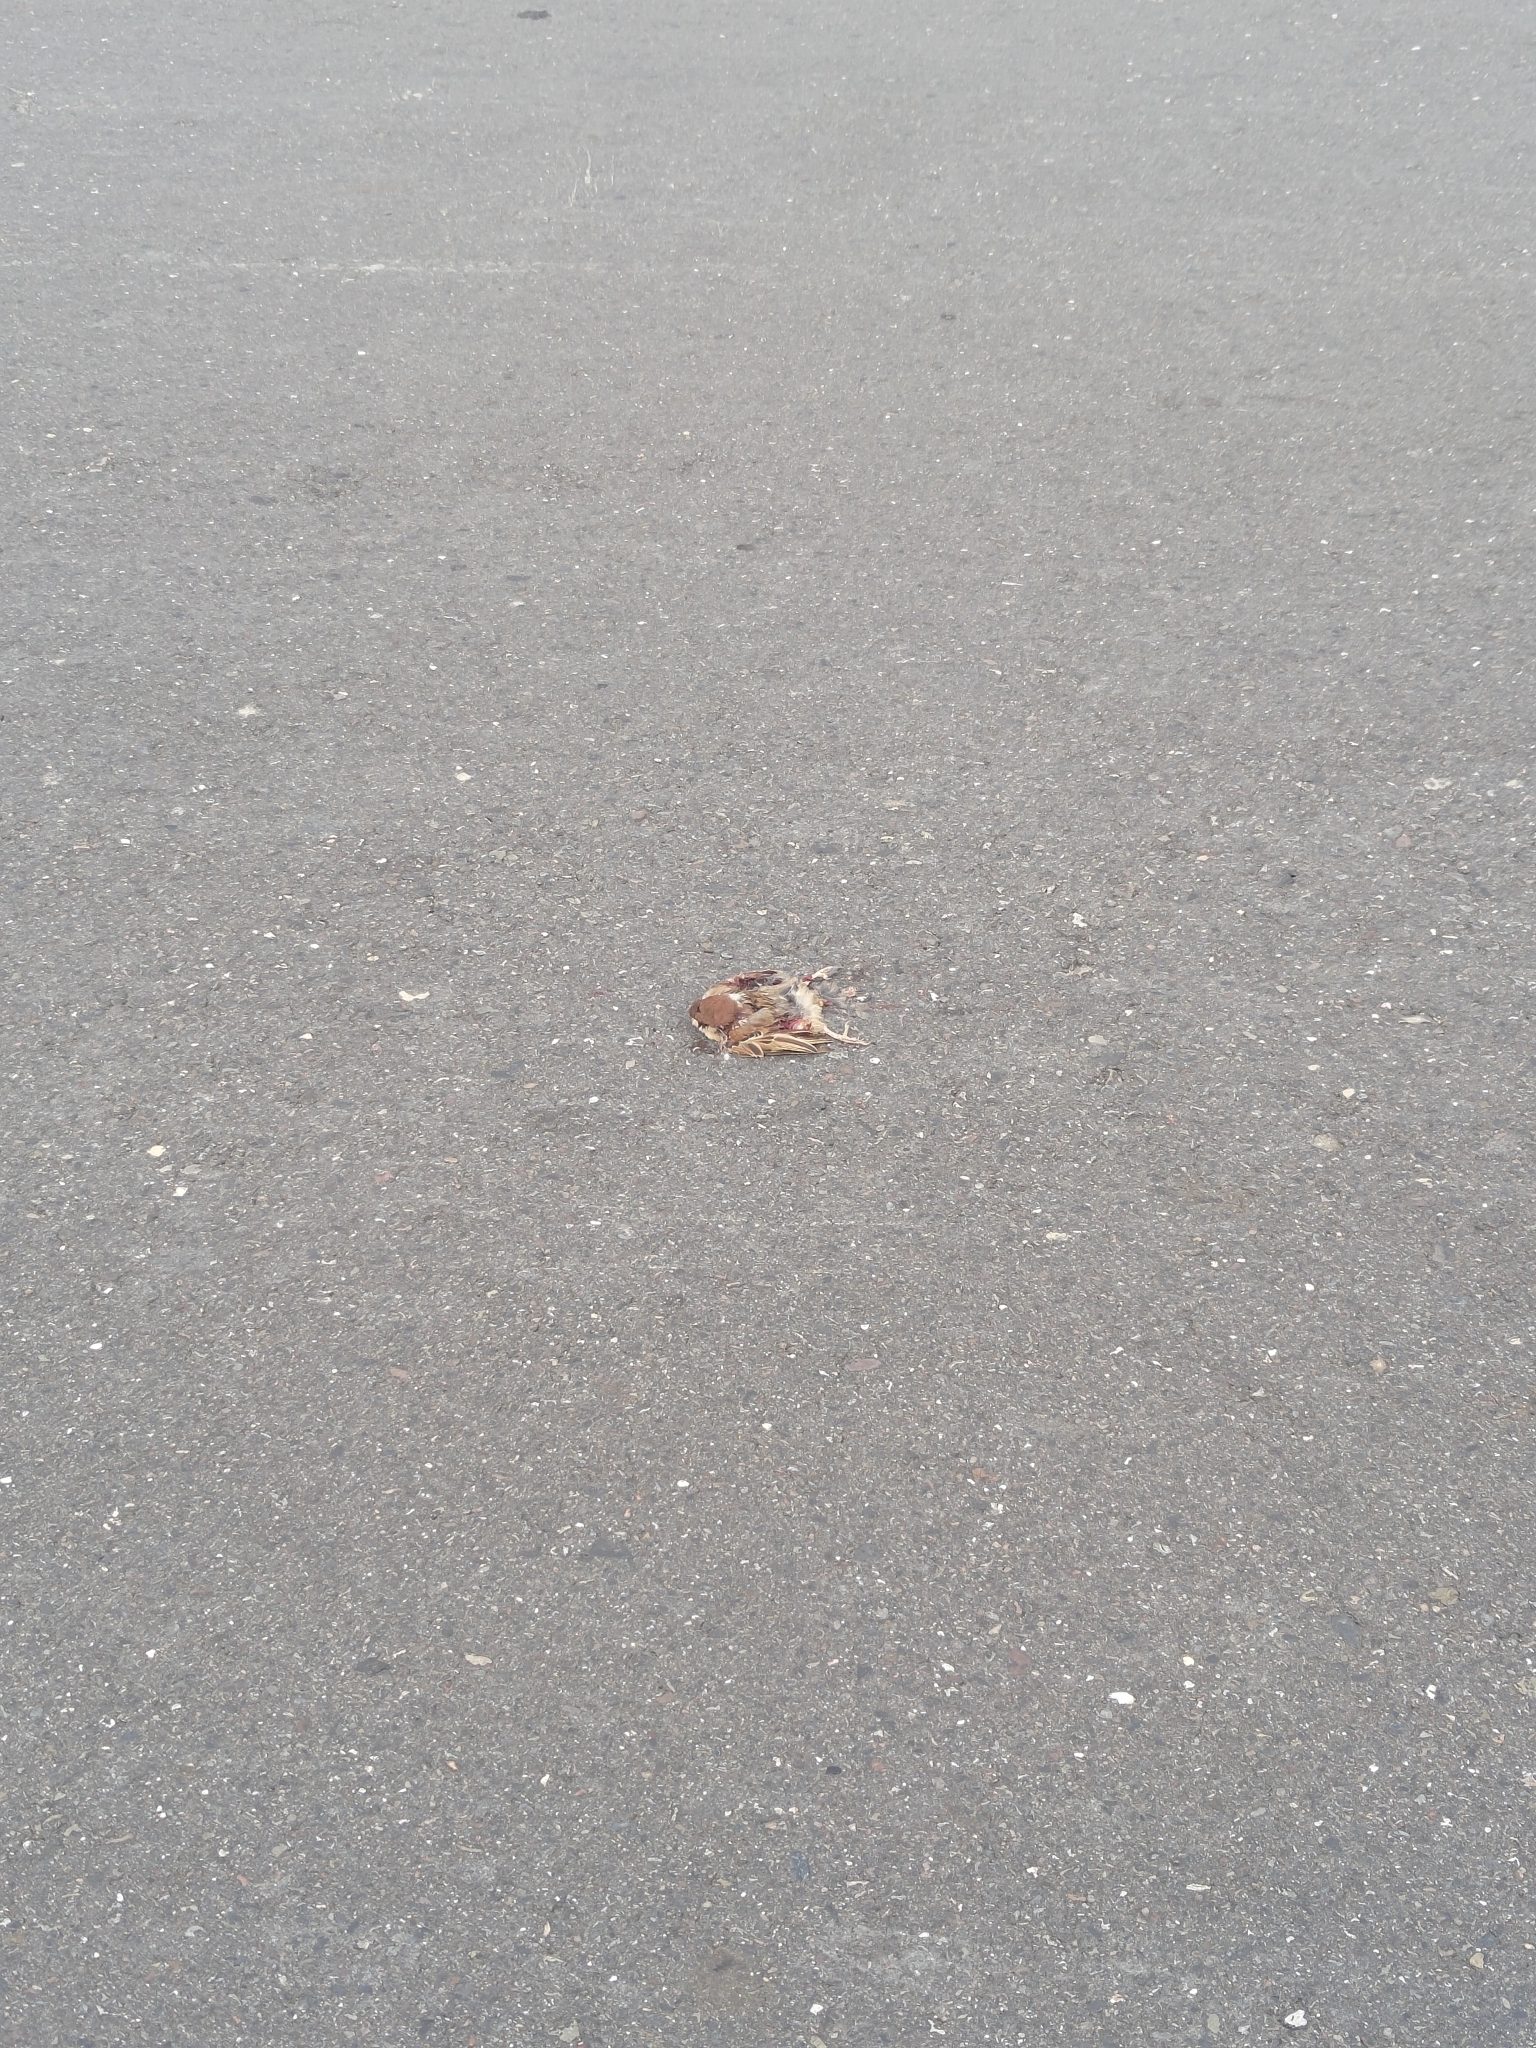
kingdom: Animalia
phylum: Chordata
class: Aves
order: Passeriformes
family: Passeridae
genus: Passer
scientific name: Passer montanus
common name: Eurasian tree sparrow
